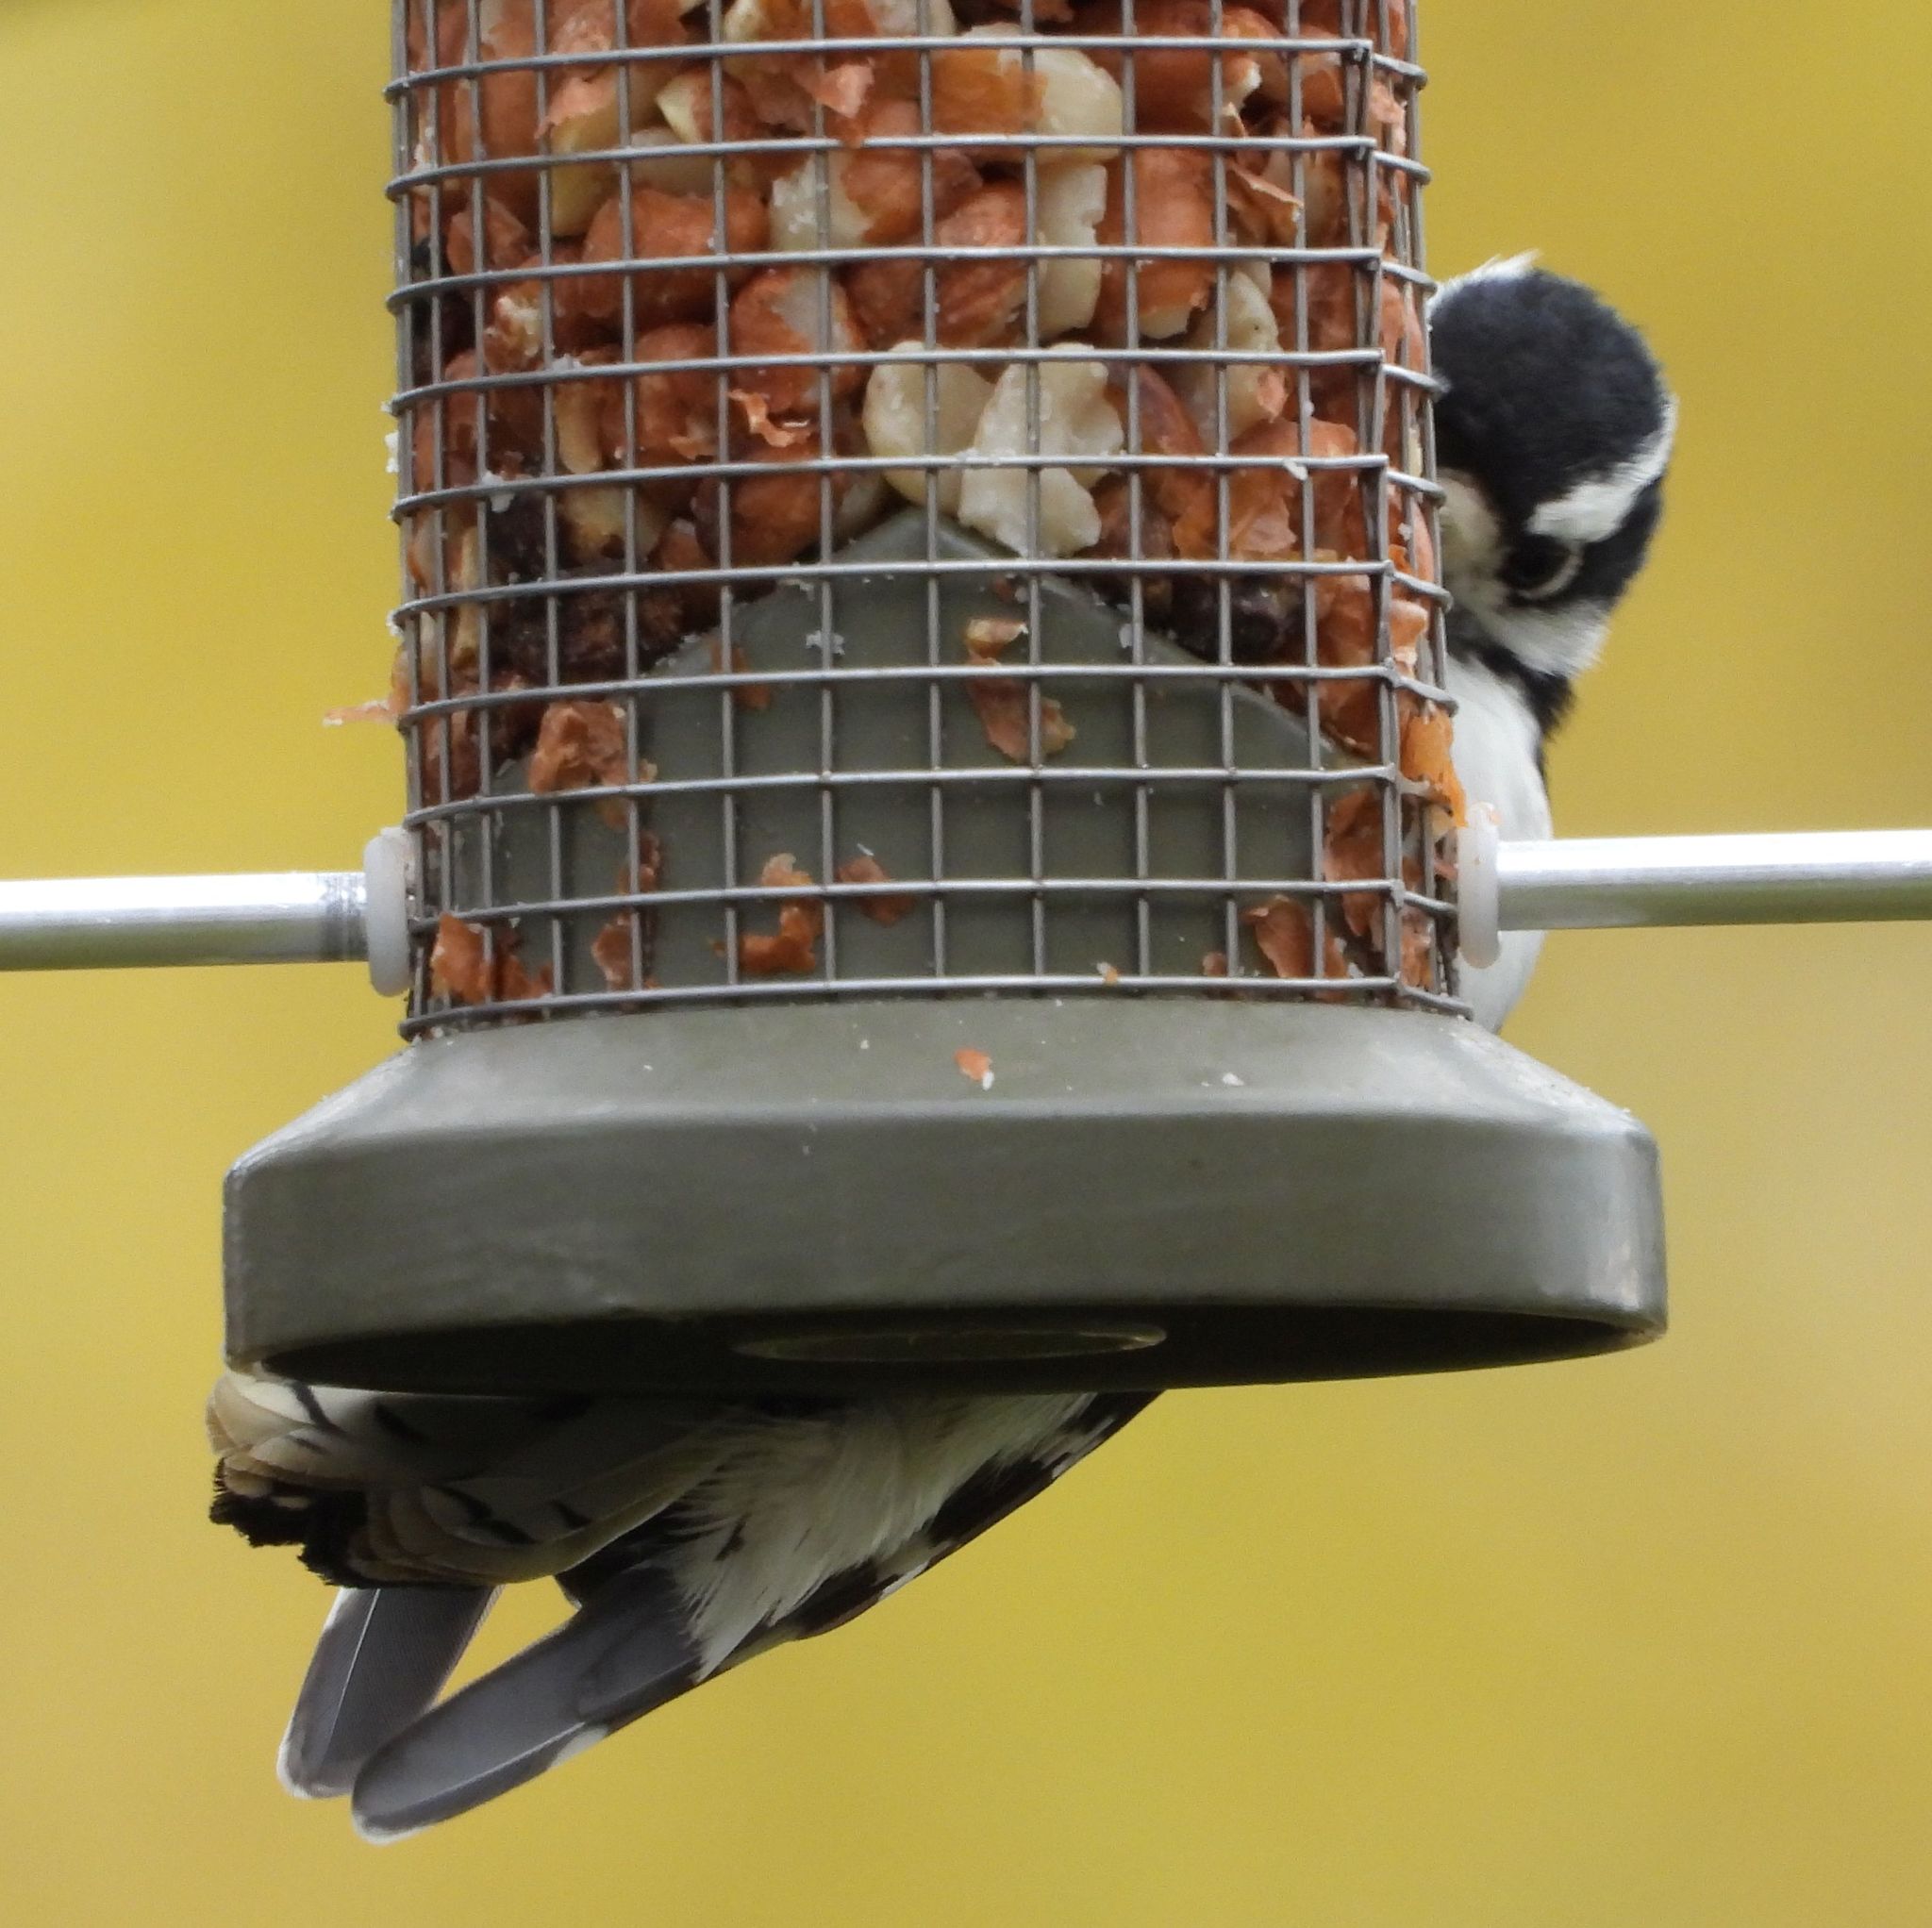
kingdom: Animalia
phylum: Chordata
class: Aves
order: Piciformes
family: Picidae
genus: Dryobates
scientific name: Dryobates pubescens
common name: Downy woodpecker
